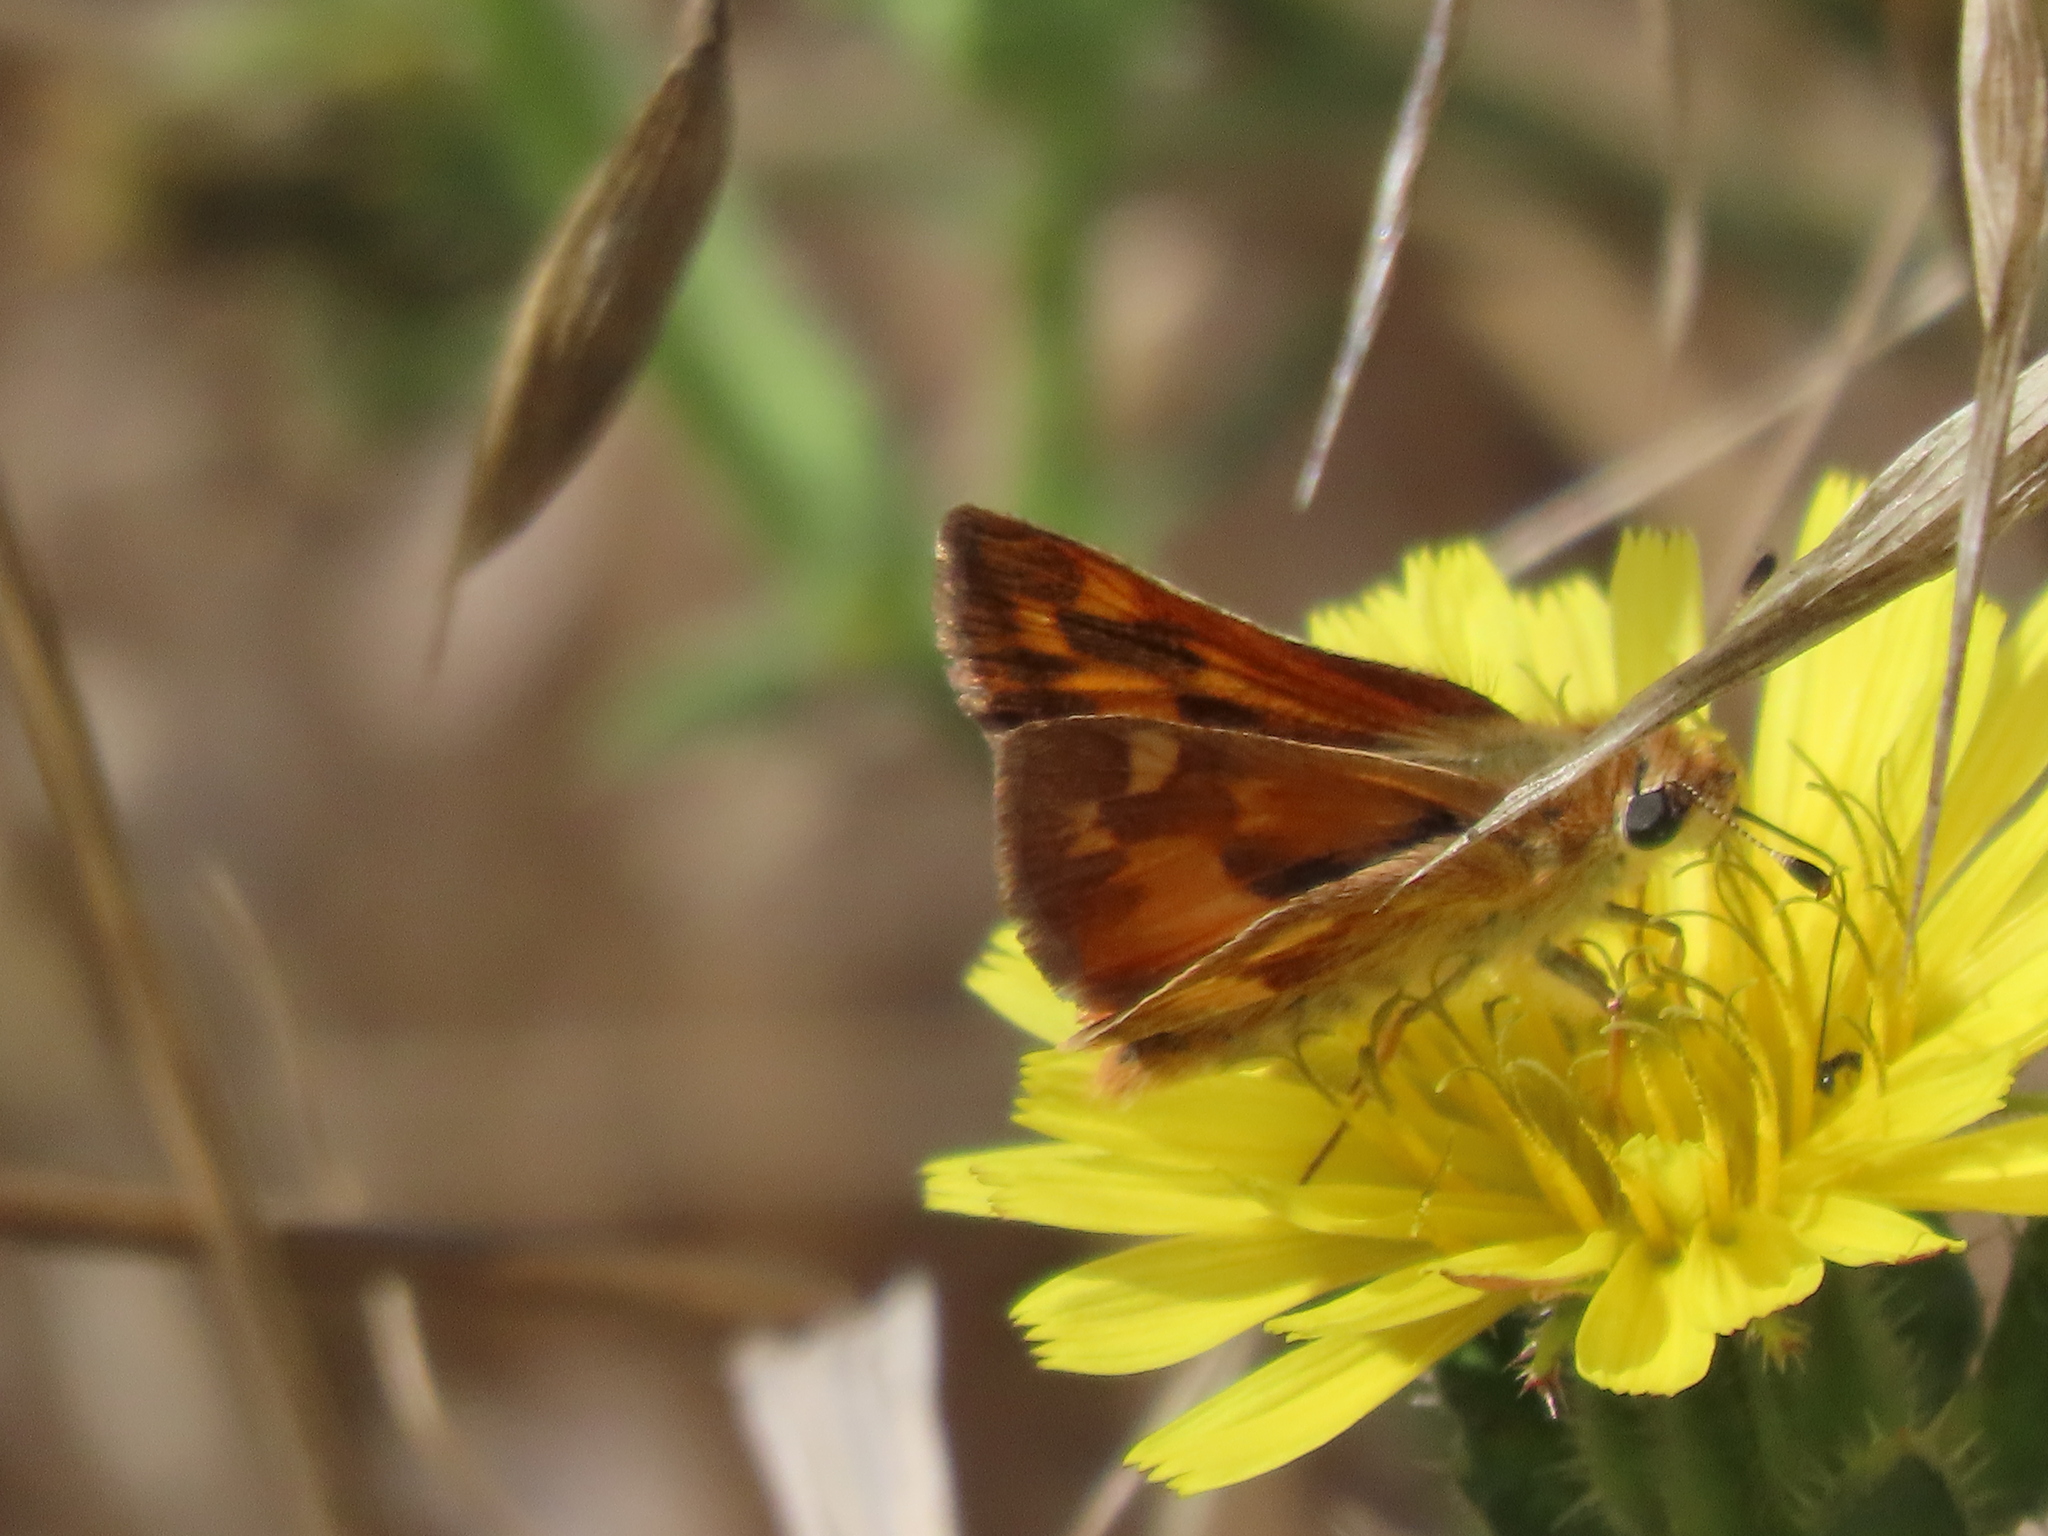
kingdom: Animalia
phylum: Arthropoda
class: Insecta
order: Lepidoptera
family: Hesperiidae
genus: Ochlodes
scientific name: Ochlodes sylvanoides
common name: Woodland skipper
